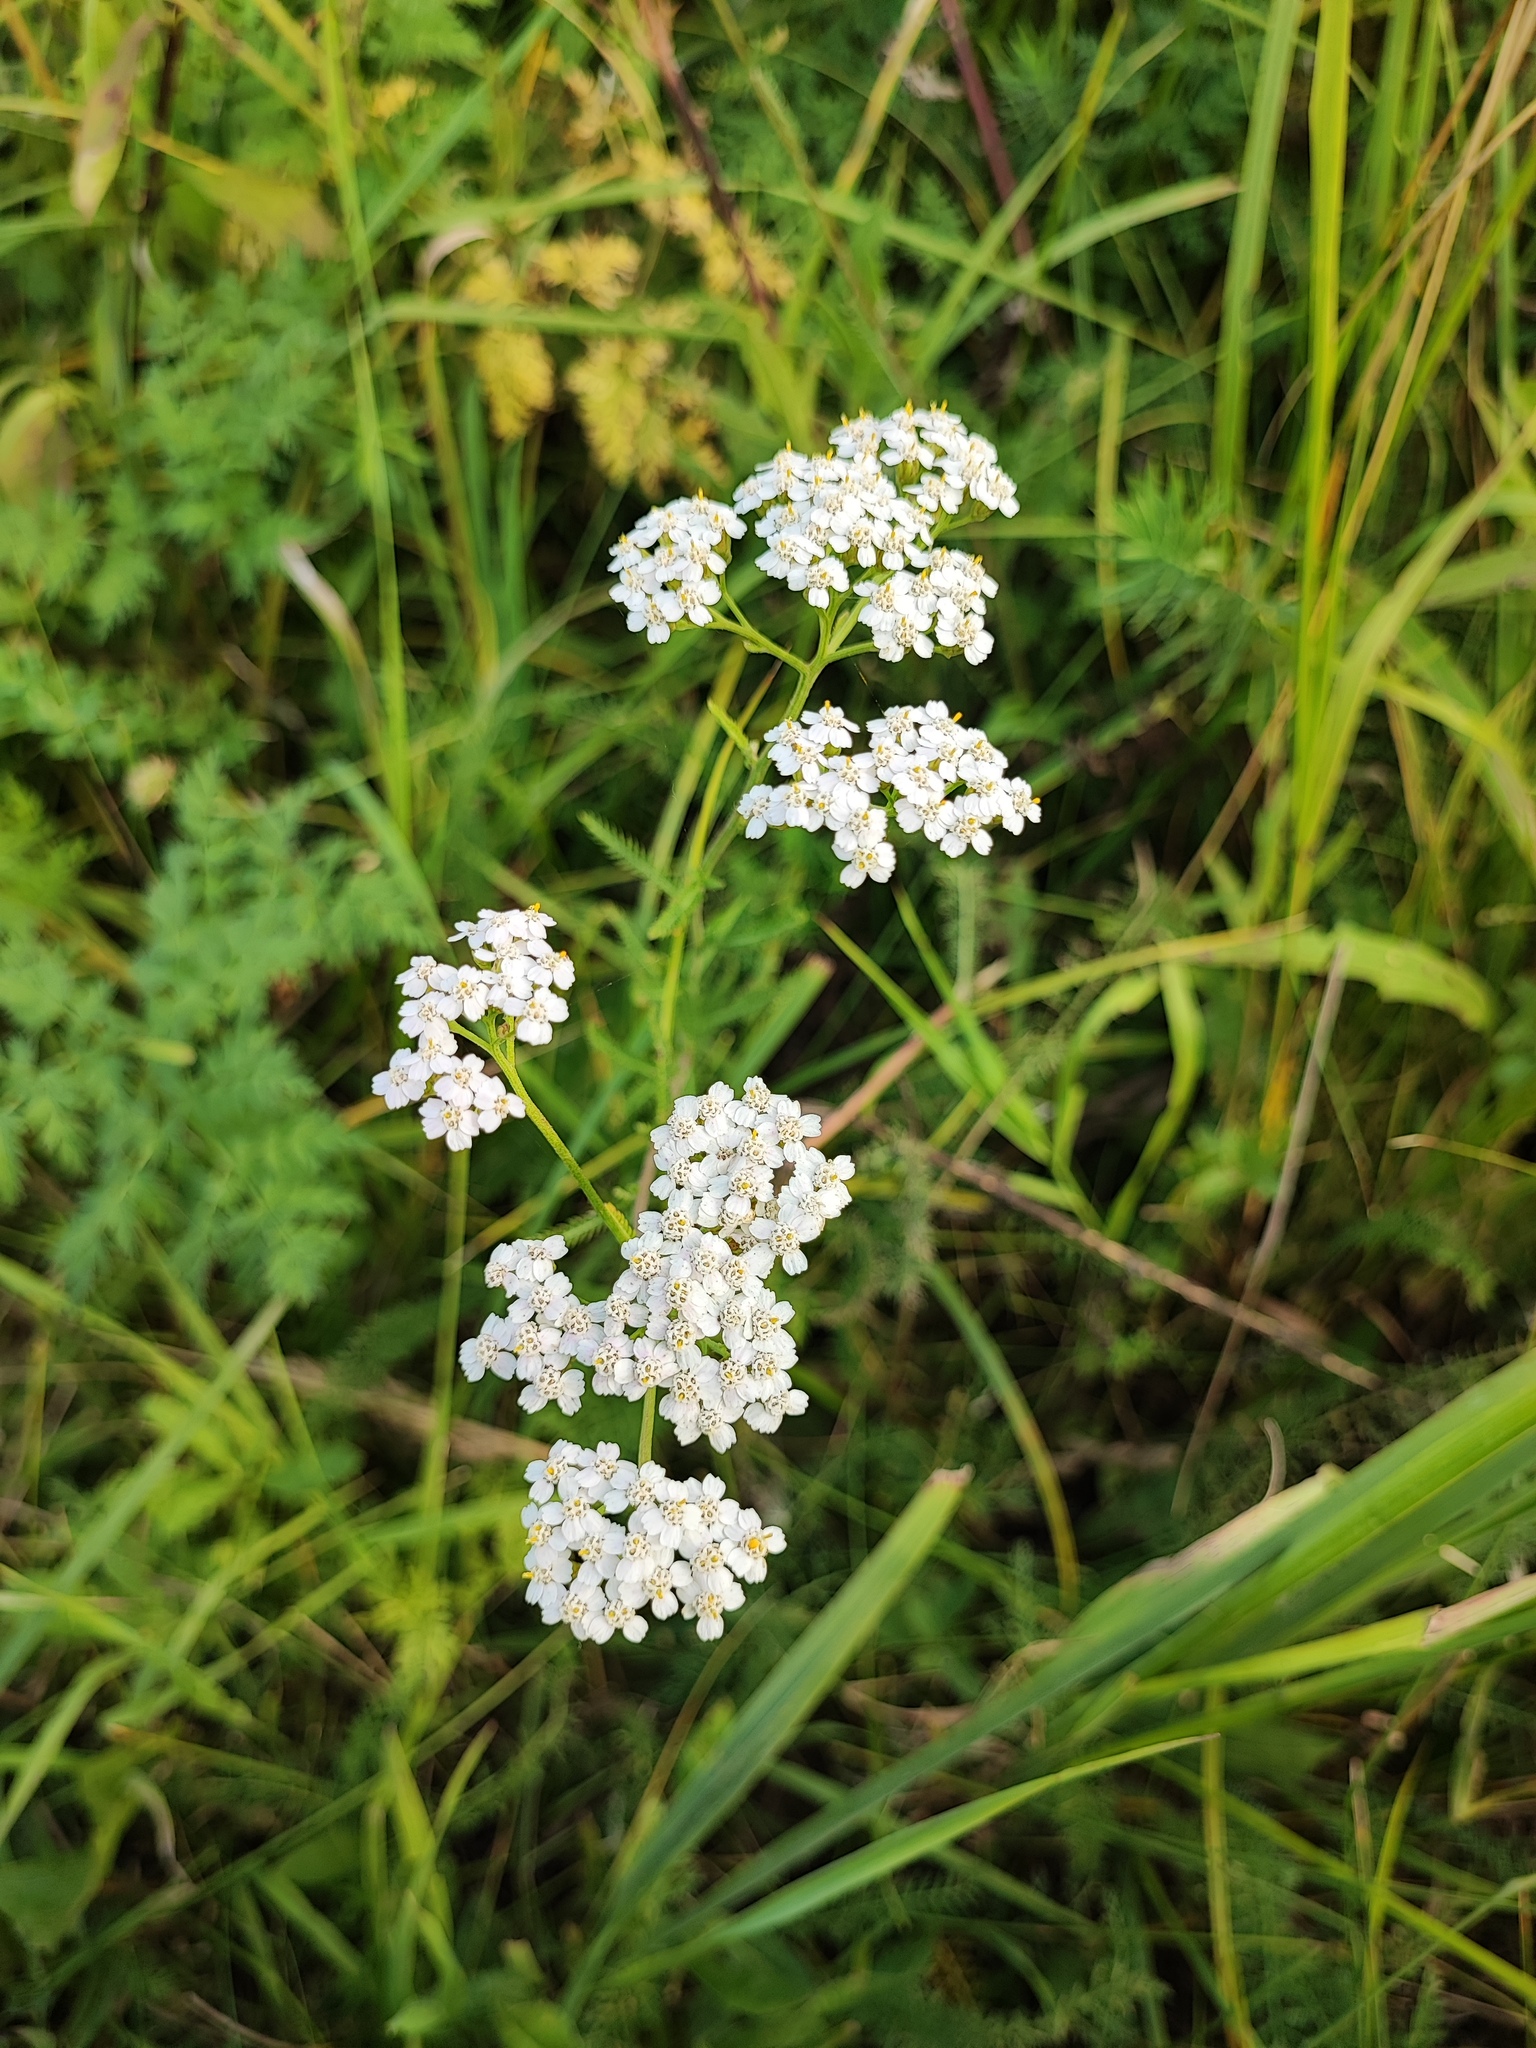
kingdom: Plantae
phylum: Tracheophyta
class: Magnoliopsida
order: Asterales
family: Asteraceae
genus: Achillea
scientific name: Achillea millefolium
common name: Yarrow
